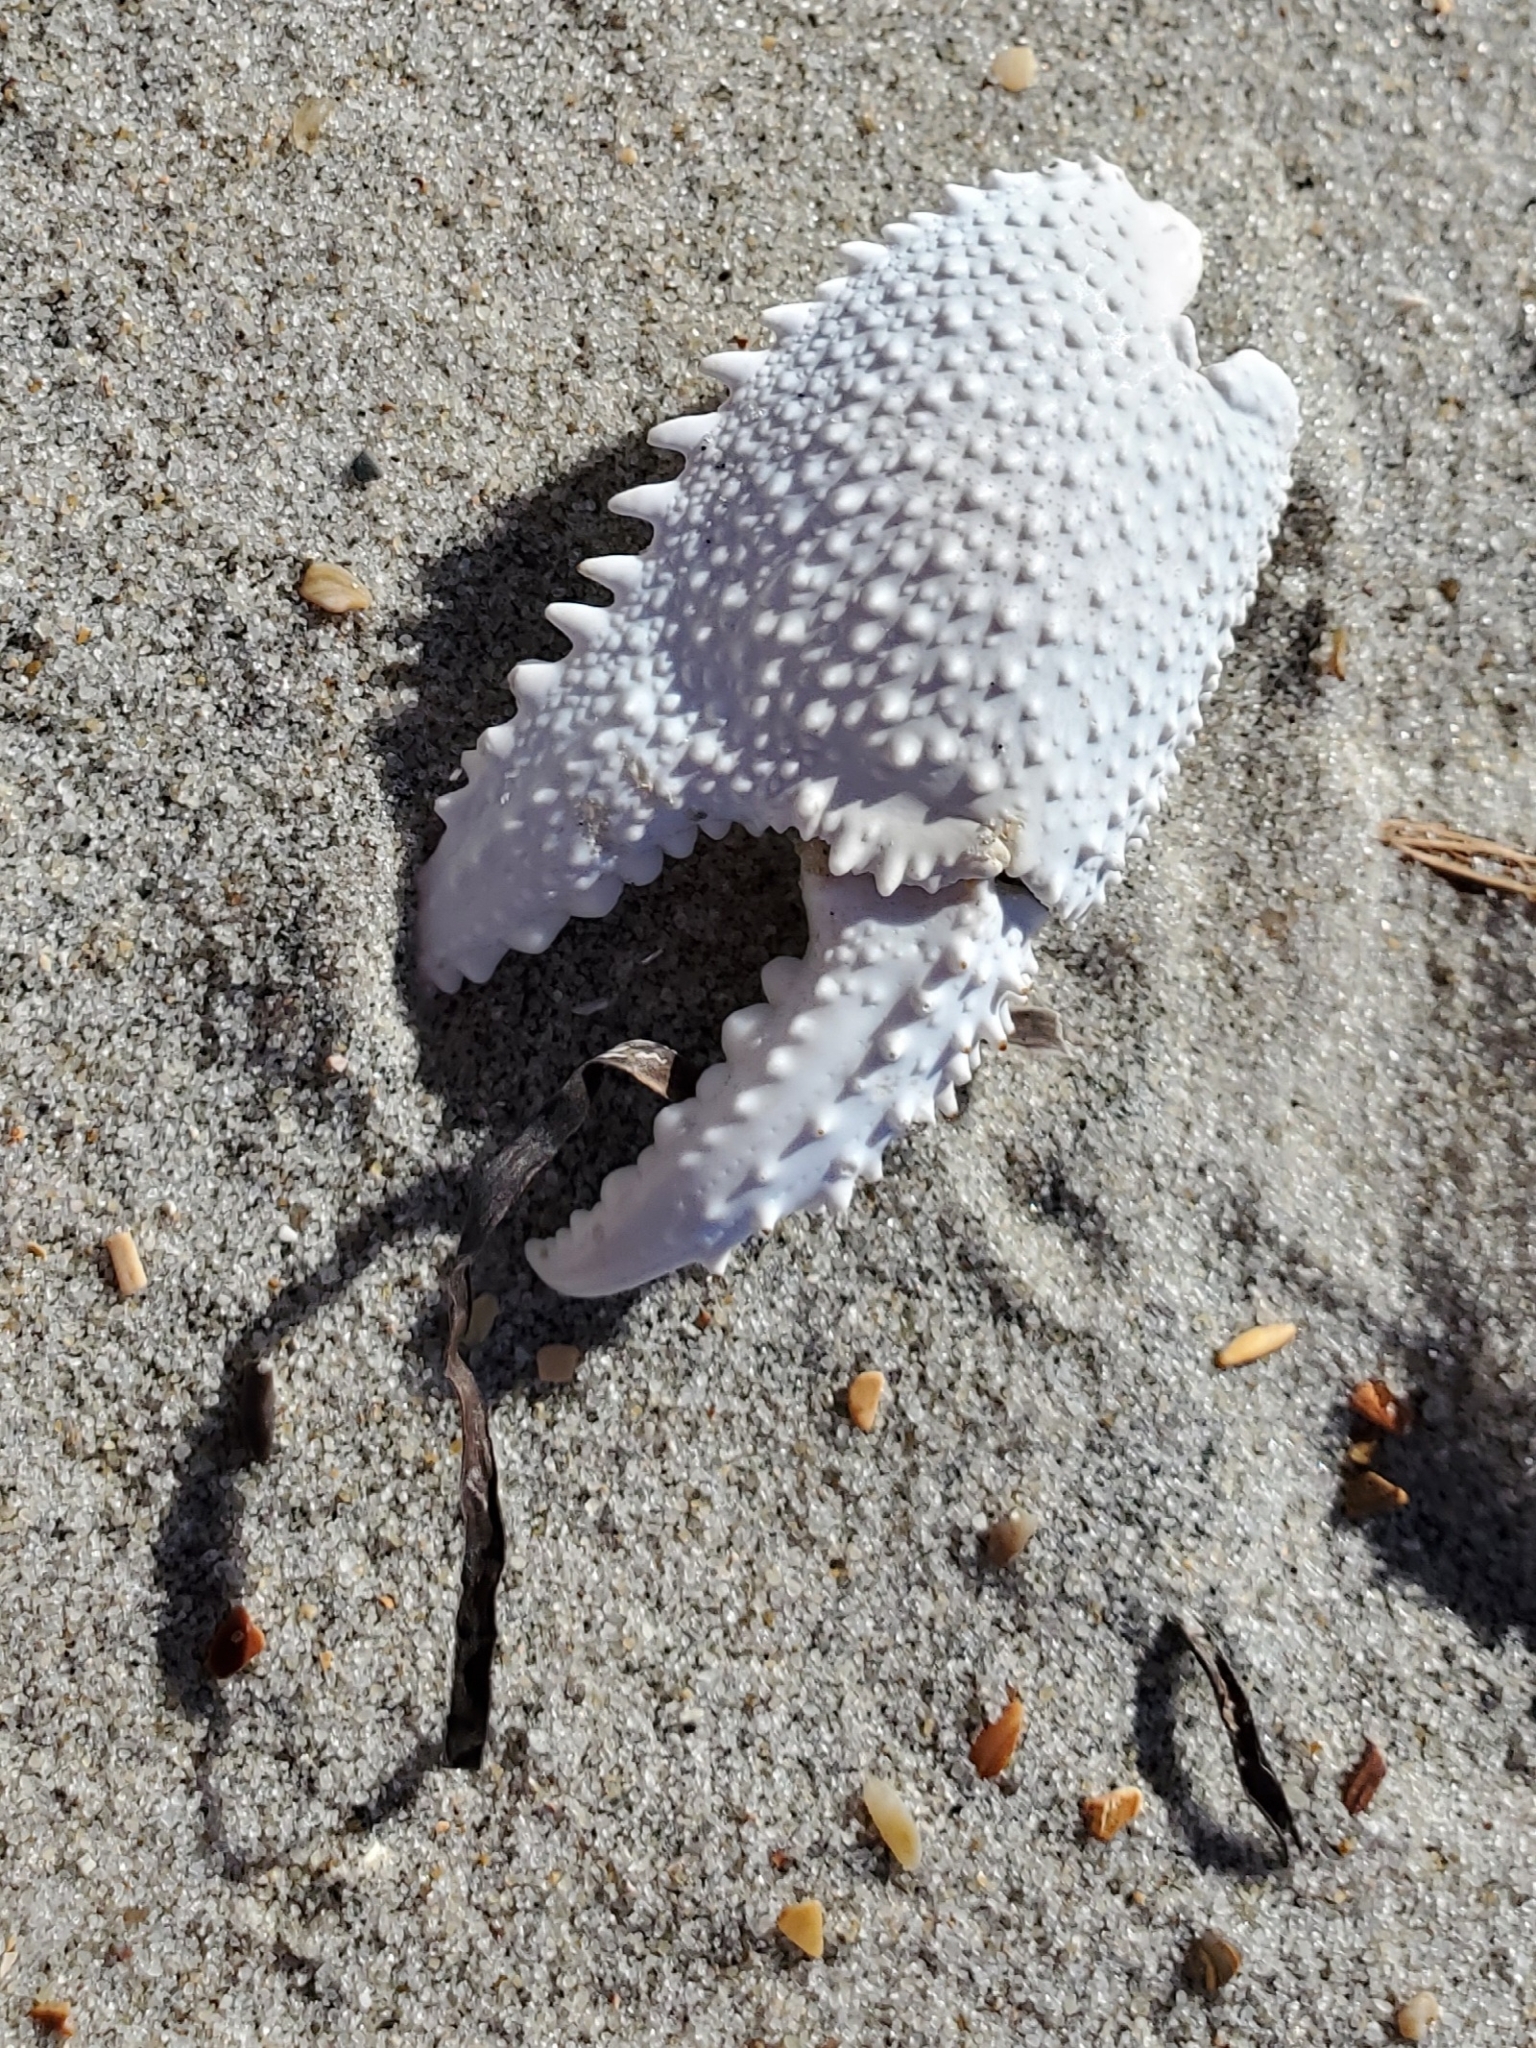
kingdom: Animalia
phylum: Arthropoda
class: Malacostraca
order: Decapoda
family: Ocypodidae
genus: Ocypode
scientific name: Ocypode quadrata
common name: Ghost crab
